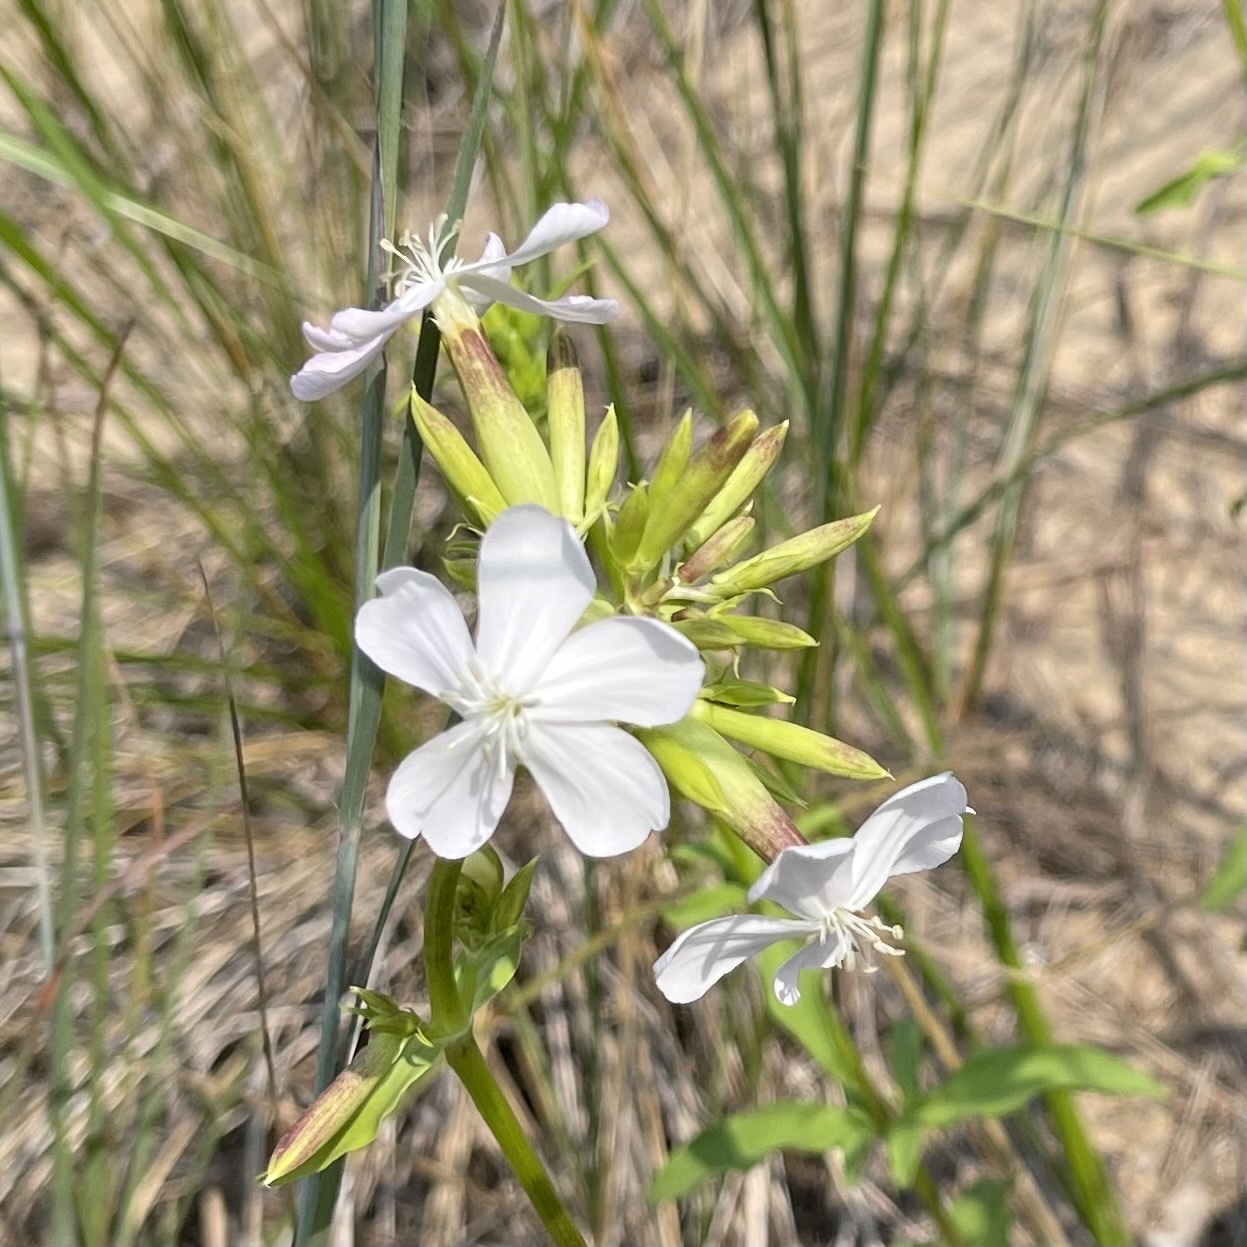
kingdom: Plantae
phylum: Tracheophyta
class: Magnoliopsida
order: Caryophyllales
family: Caryophyllaceae
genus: Saponaria
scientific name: Saponaria officinalis
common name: Soapwort
